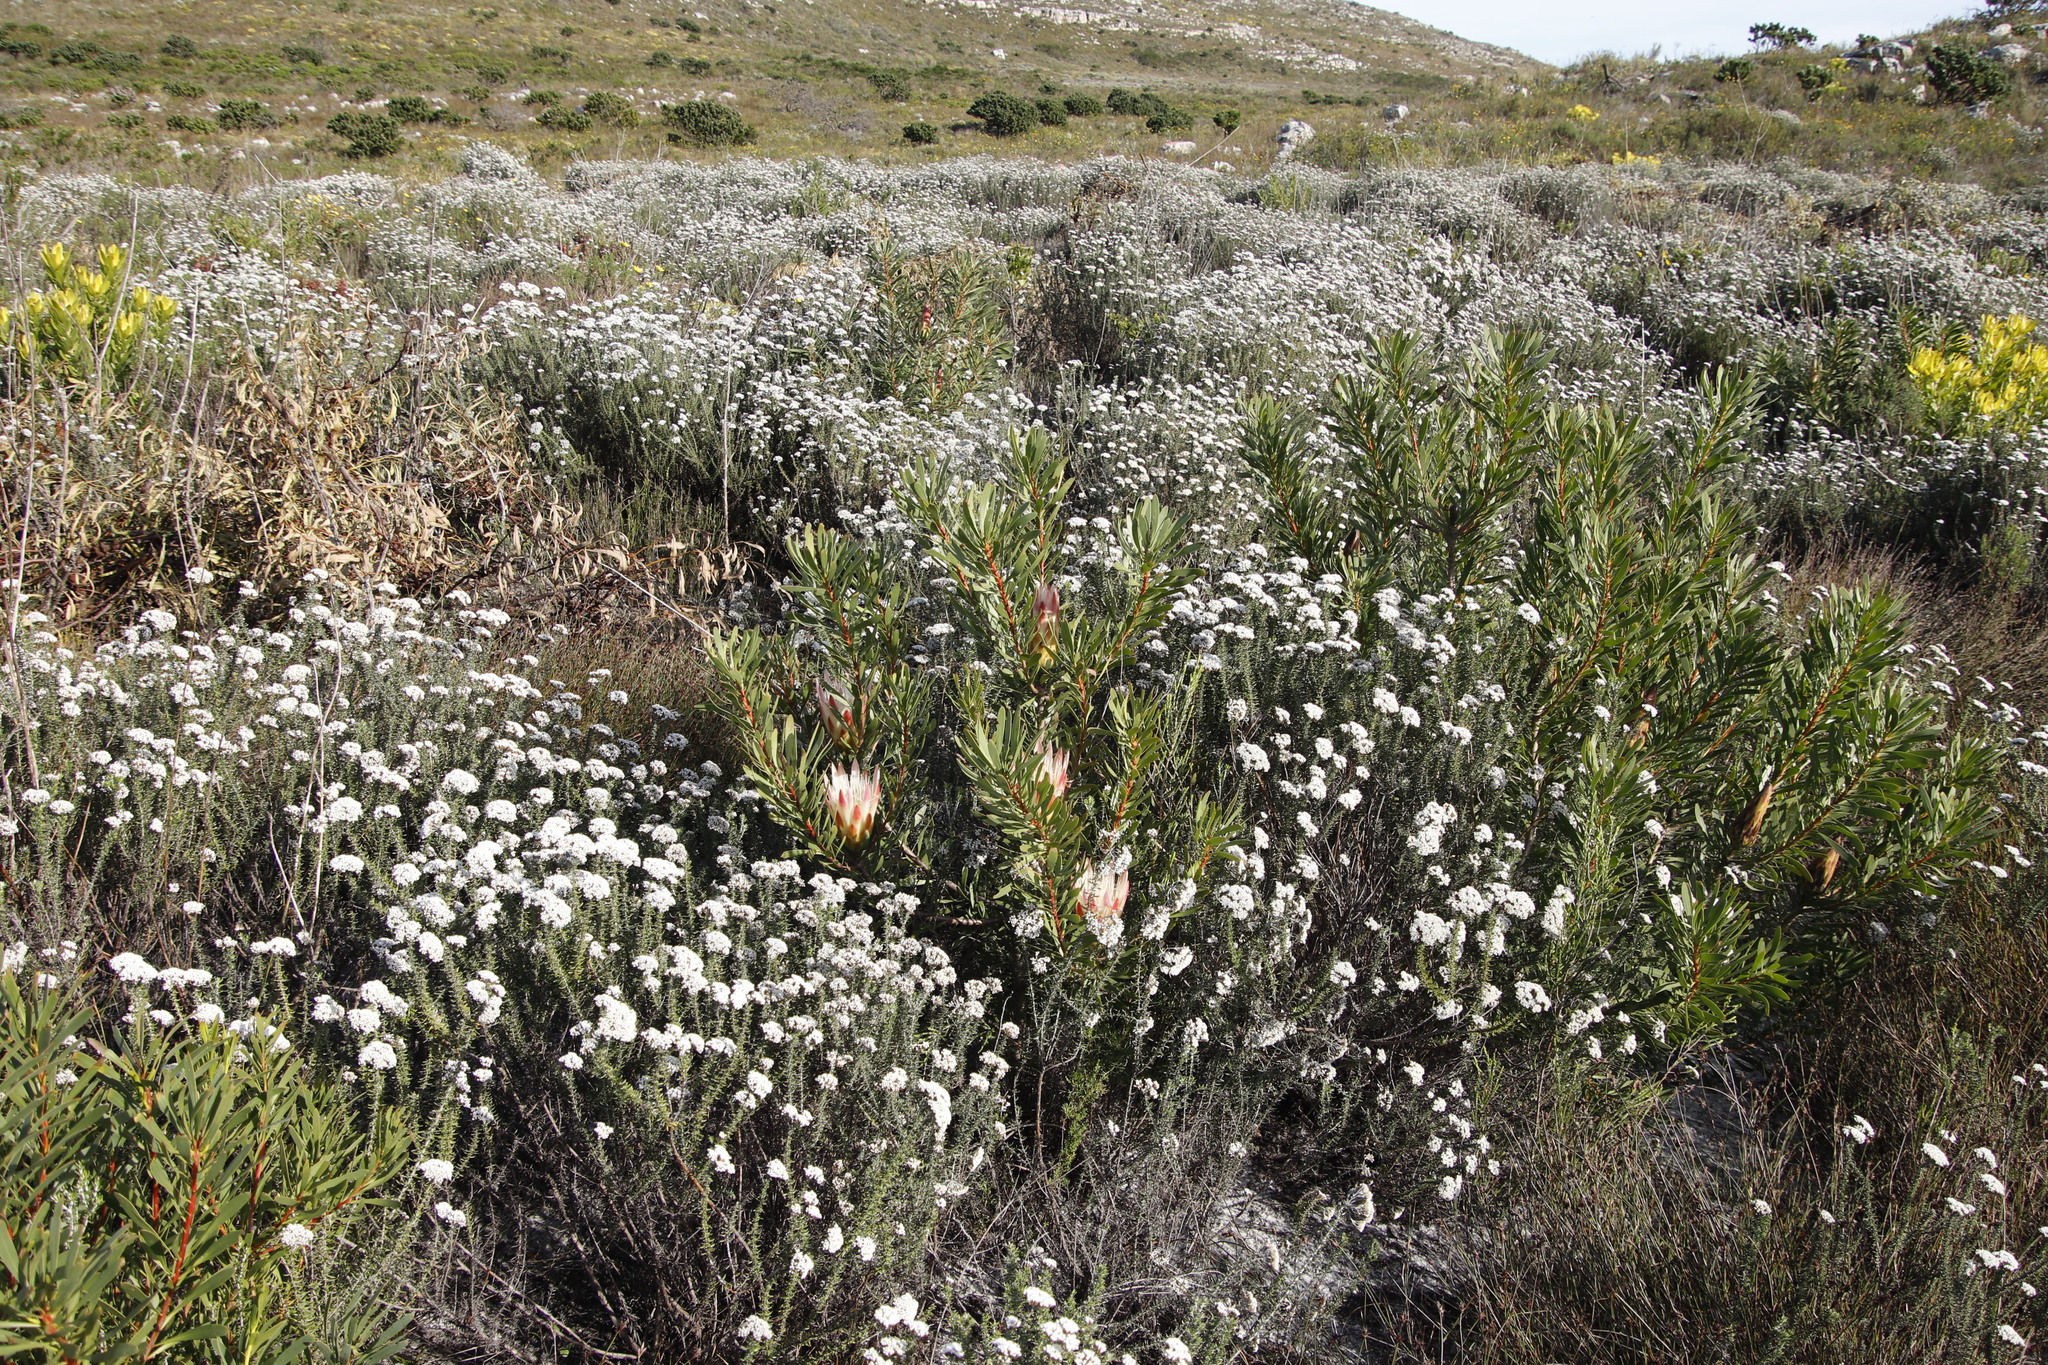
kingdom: Plantae
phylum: Tracheophyta
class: Magnoliopsida
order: Proteales
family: Proteaceae
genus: Protea
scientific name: Protea repens
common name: Sugarbush
